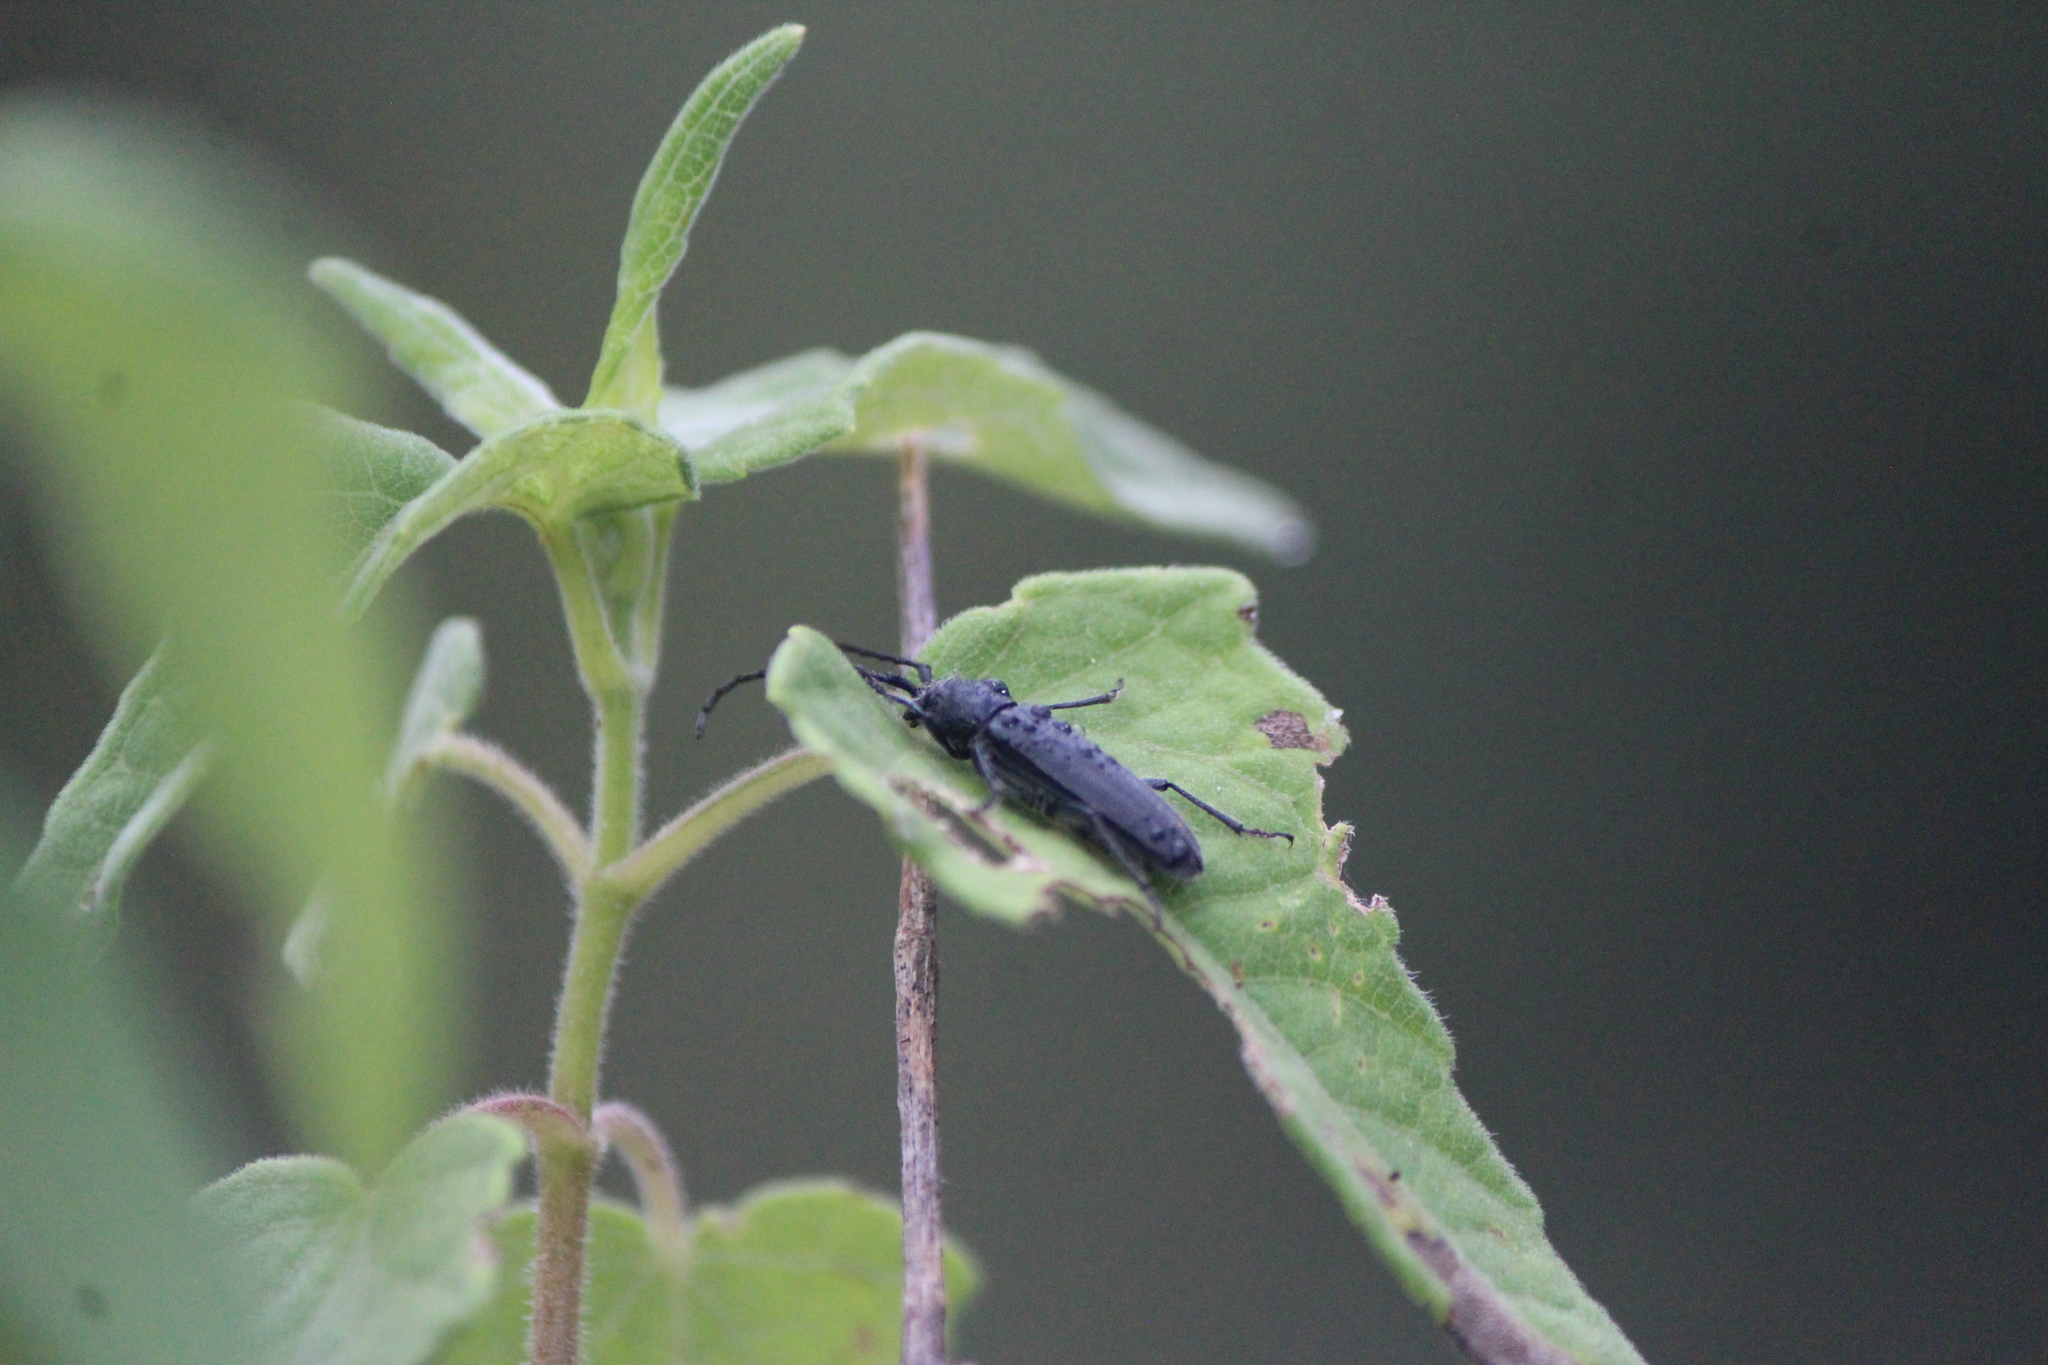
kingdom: Animalia
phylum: Arthropoda
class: Insecta
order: Coleoptera
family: Cerambycidae
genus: Mannophorus
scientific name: Mannophorus laetus
